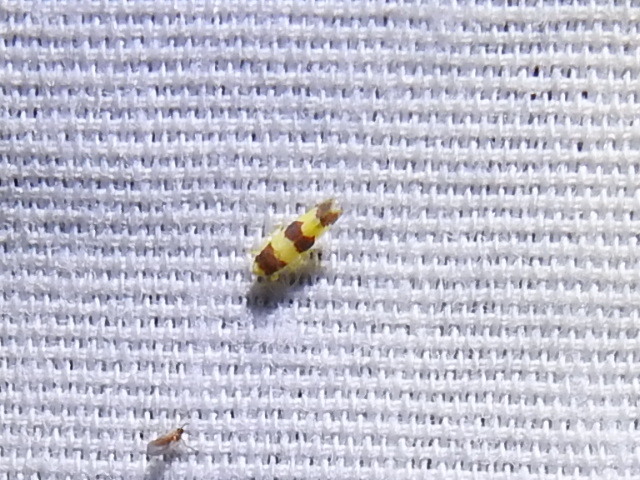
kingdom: Animalia
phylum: Arthropoda
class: Insecta
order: Hemiptera
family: Cicadellidae
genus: Erythroneura
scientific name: Erythroneura bistrata
